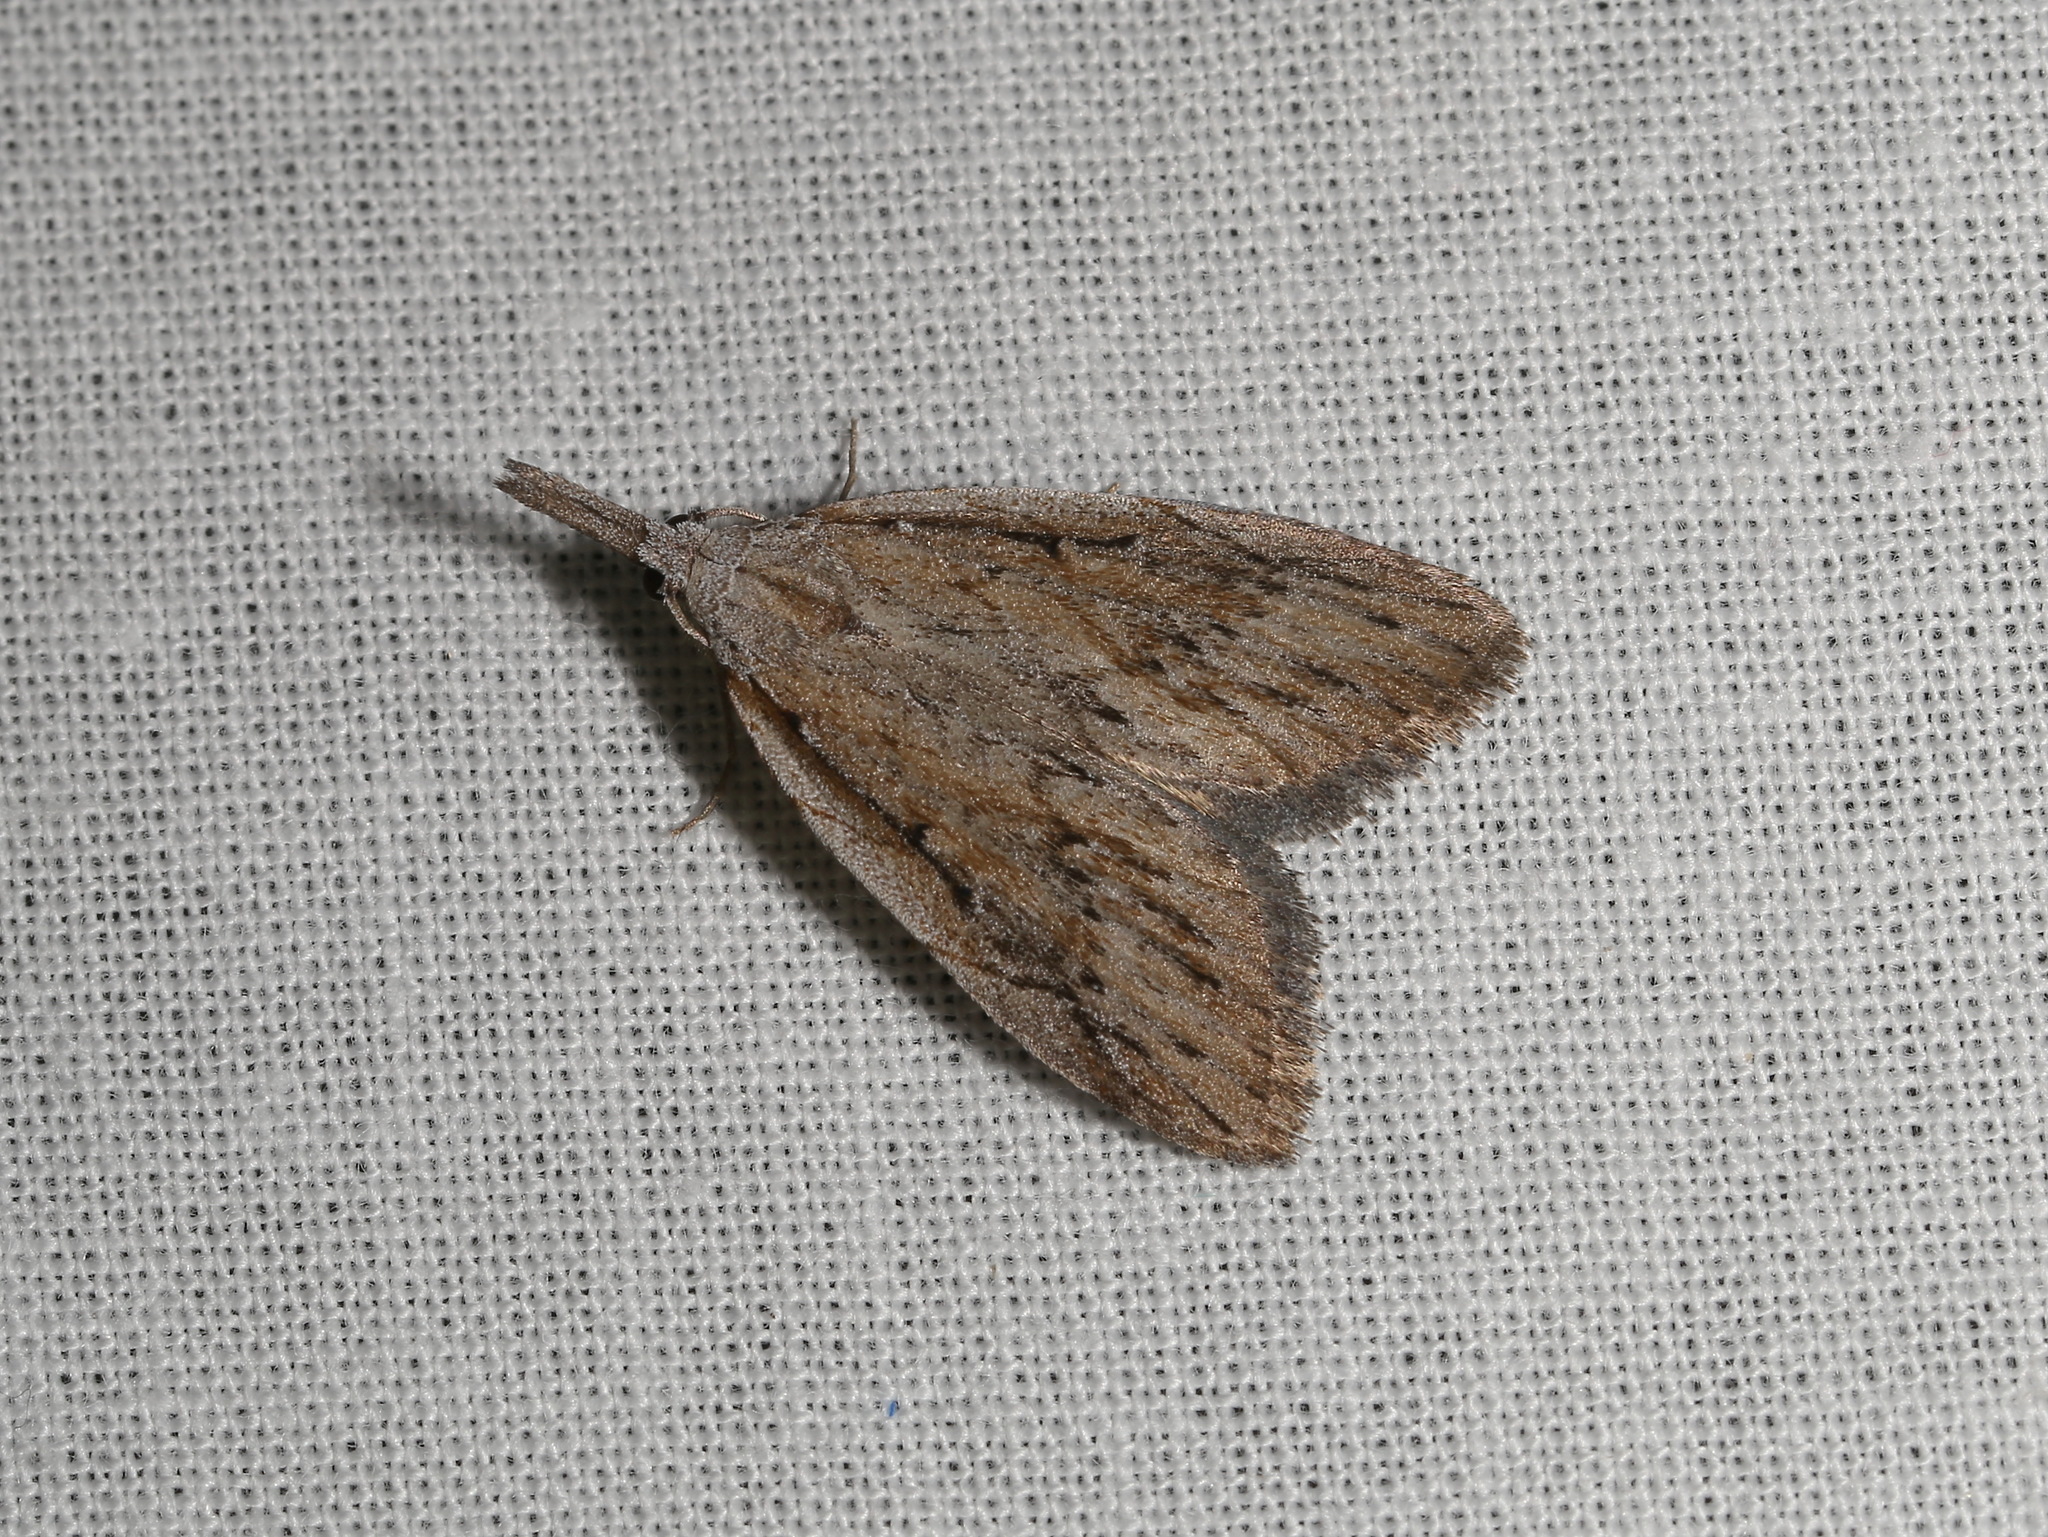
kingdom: Animalia
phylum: Arthropoda
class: Insecta
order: Lepidoptera
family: Nolidae
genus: Nola
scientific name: Nola belotypa
